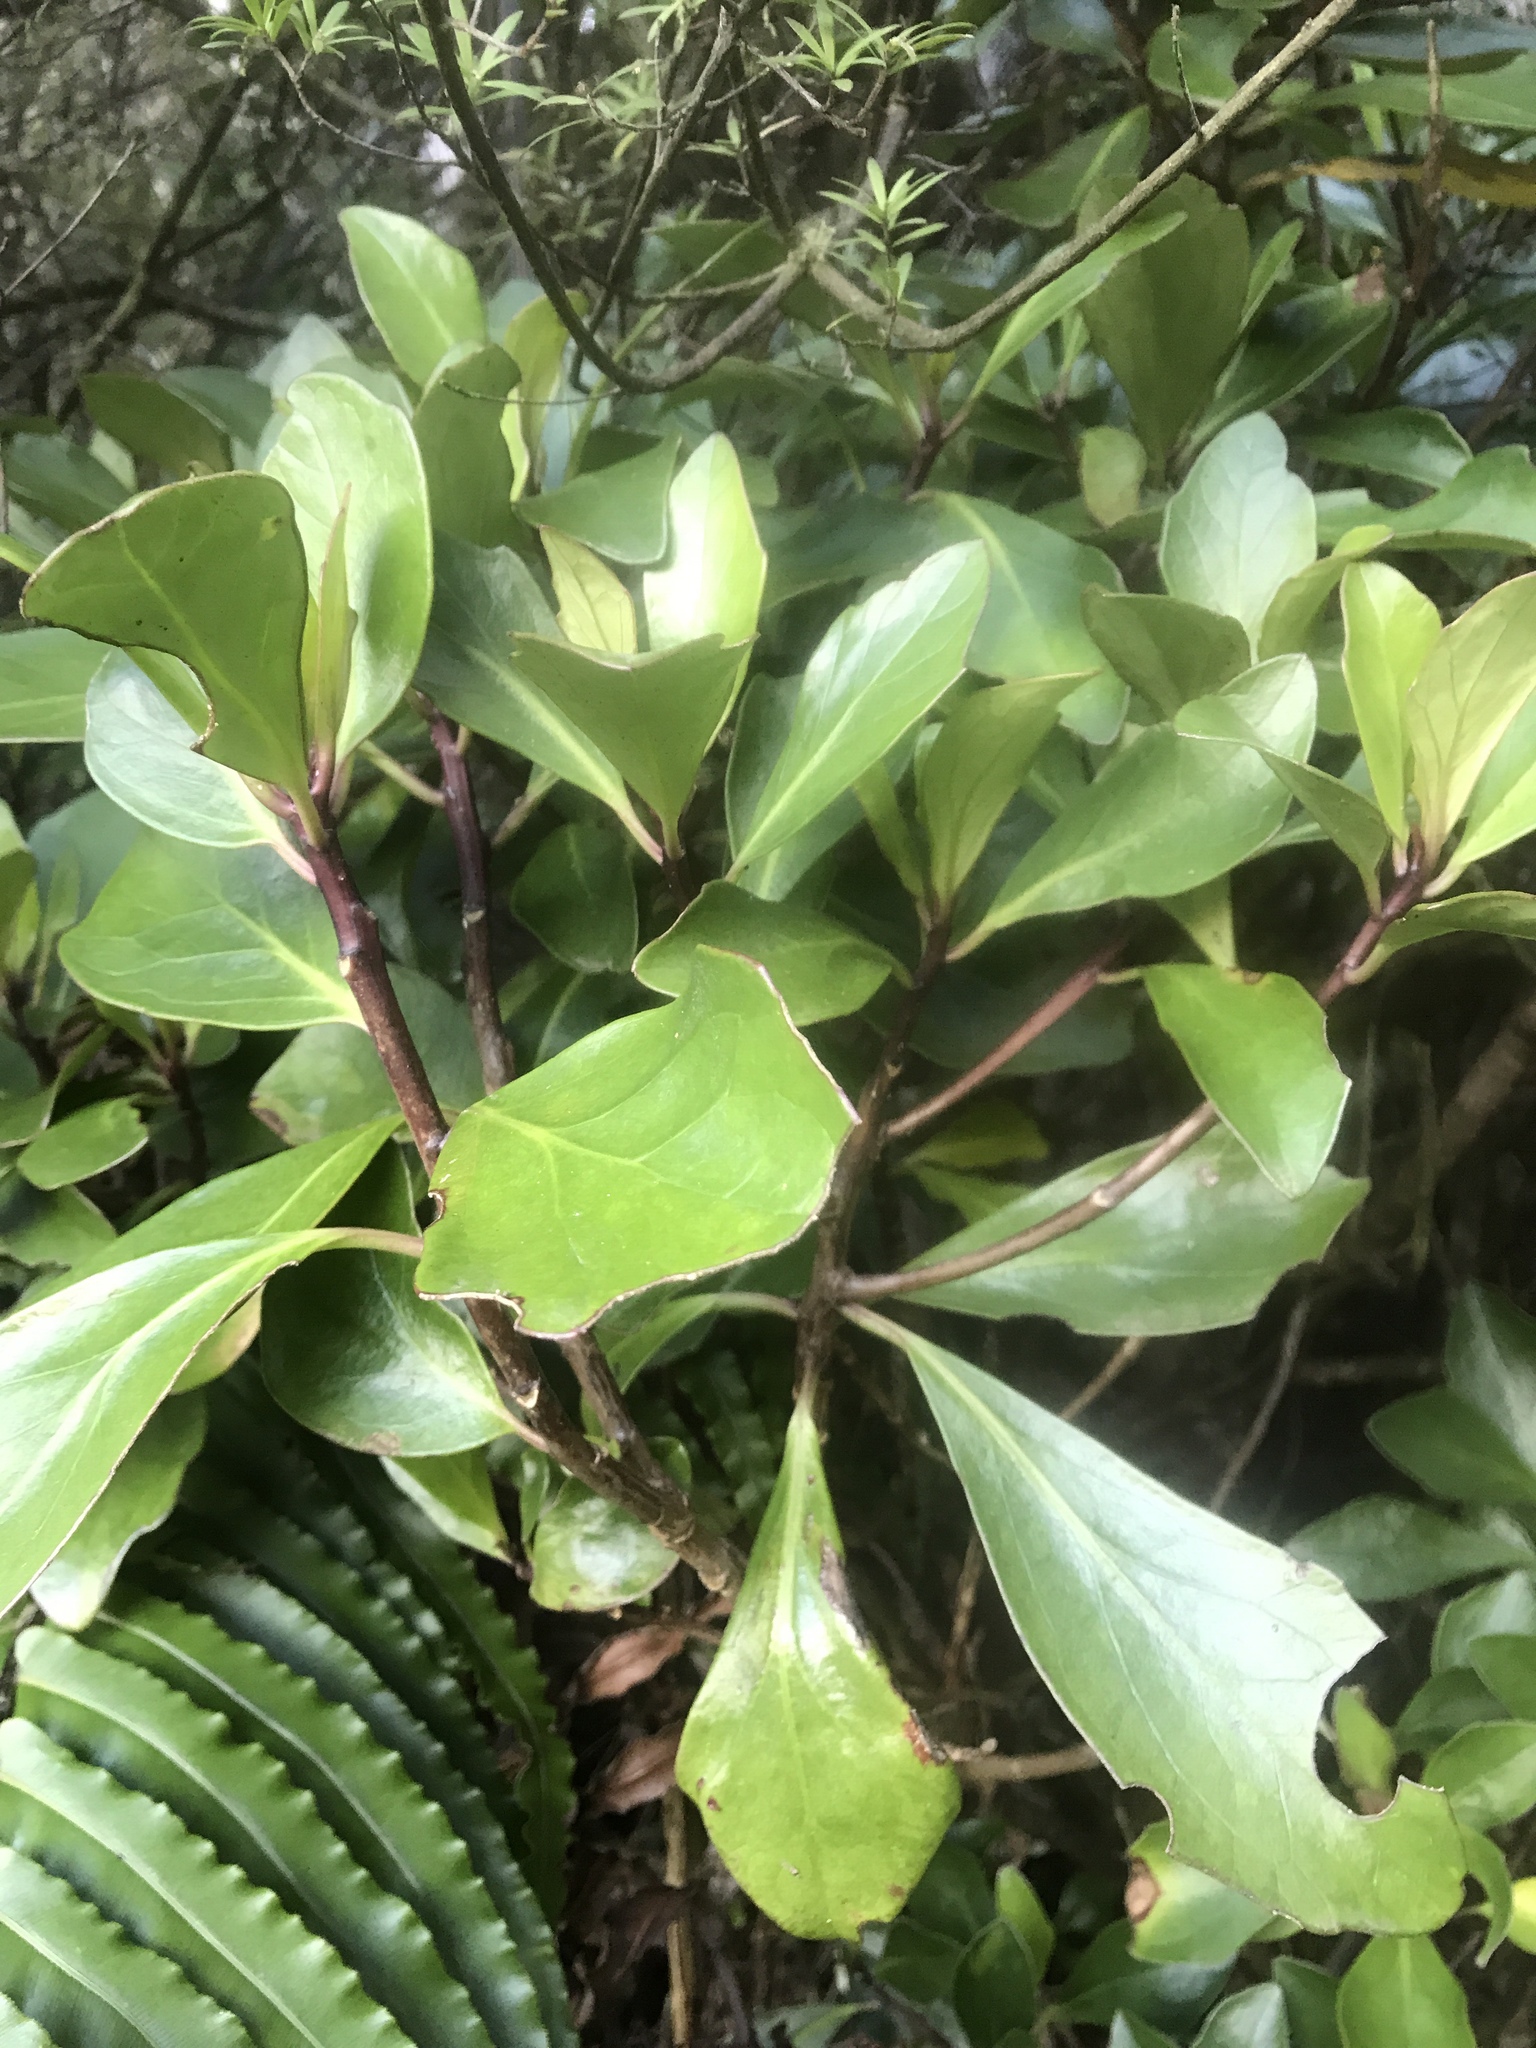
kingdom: Plantae
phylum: Tracheophyta
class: Magnoliopsida
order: Asterales
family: Asteraceae
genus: Brachyglottis
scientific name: Brachyglottis kirkii
